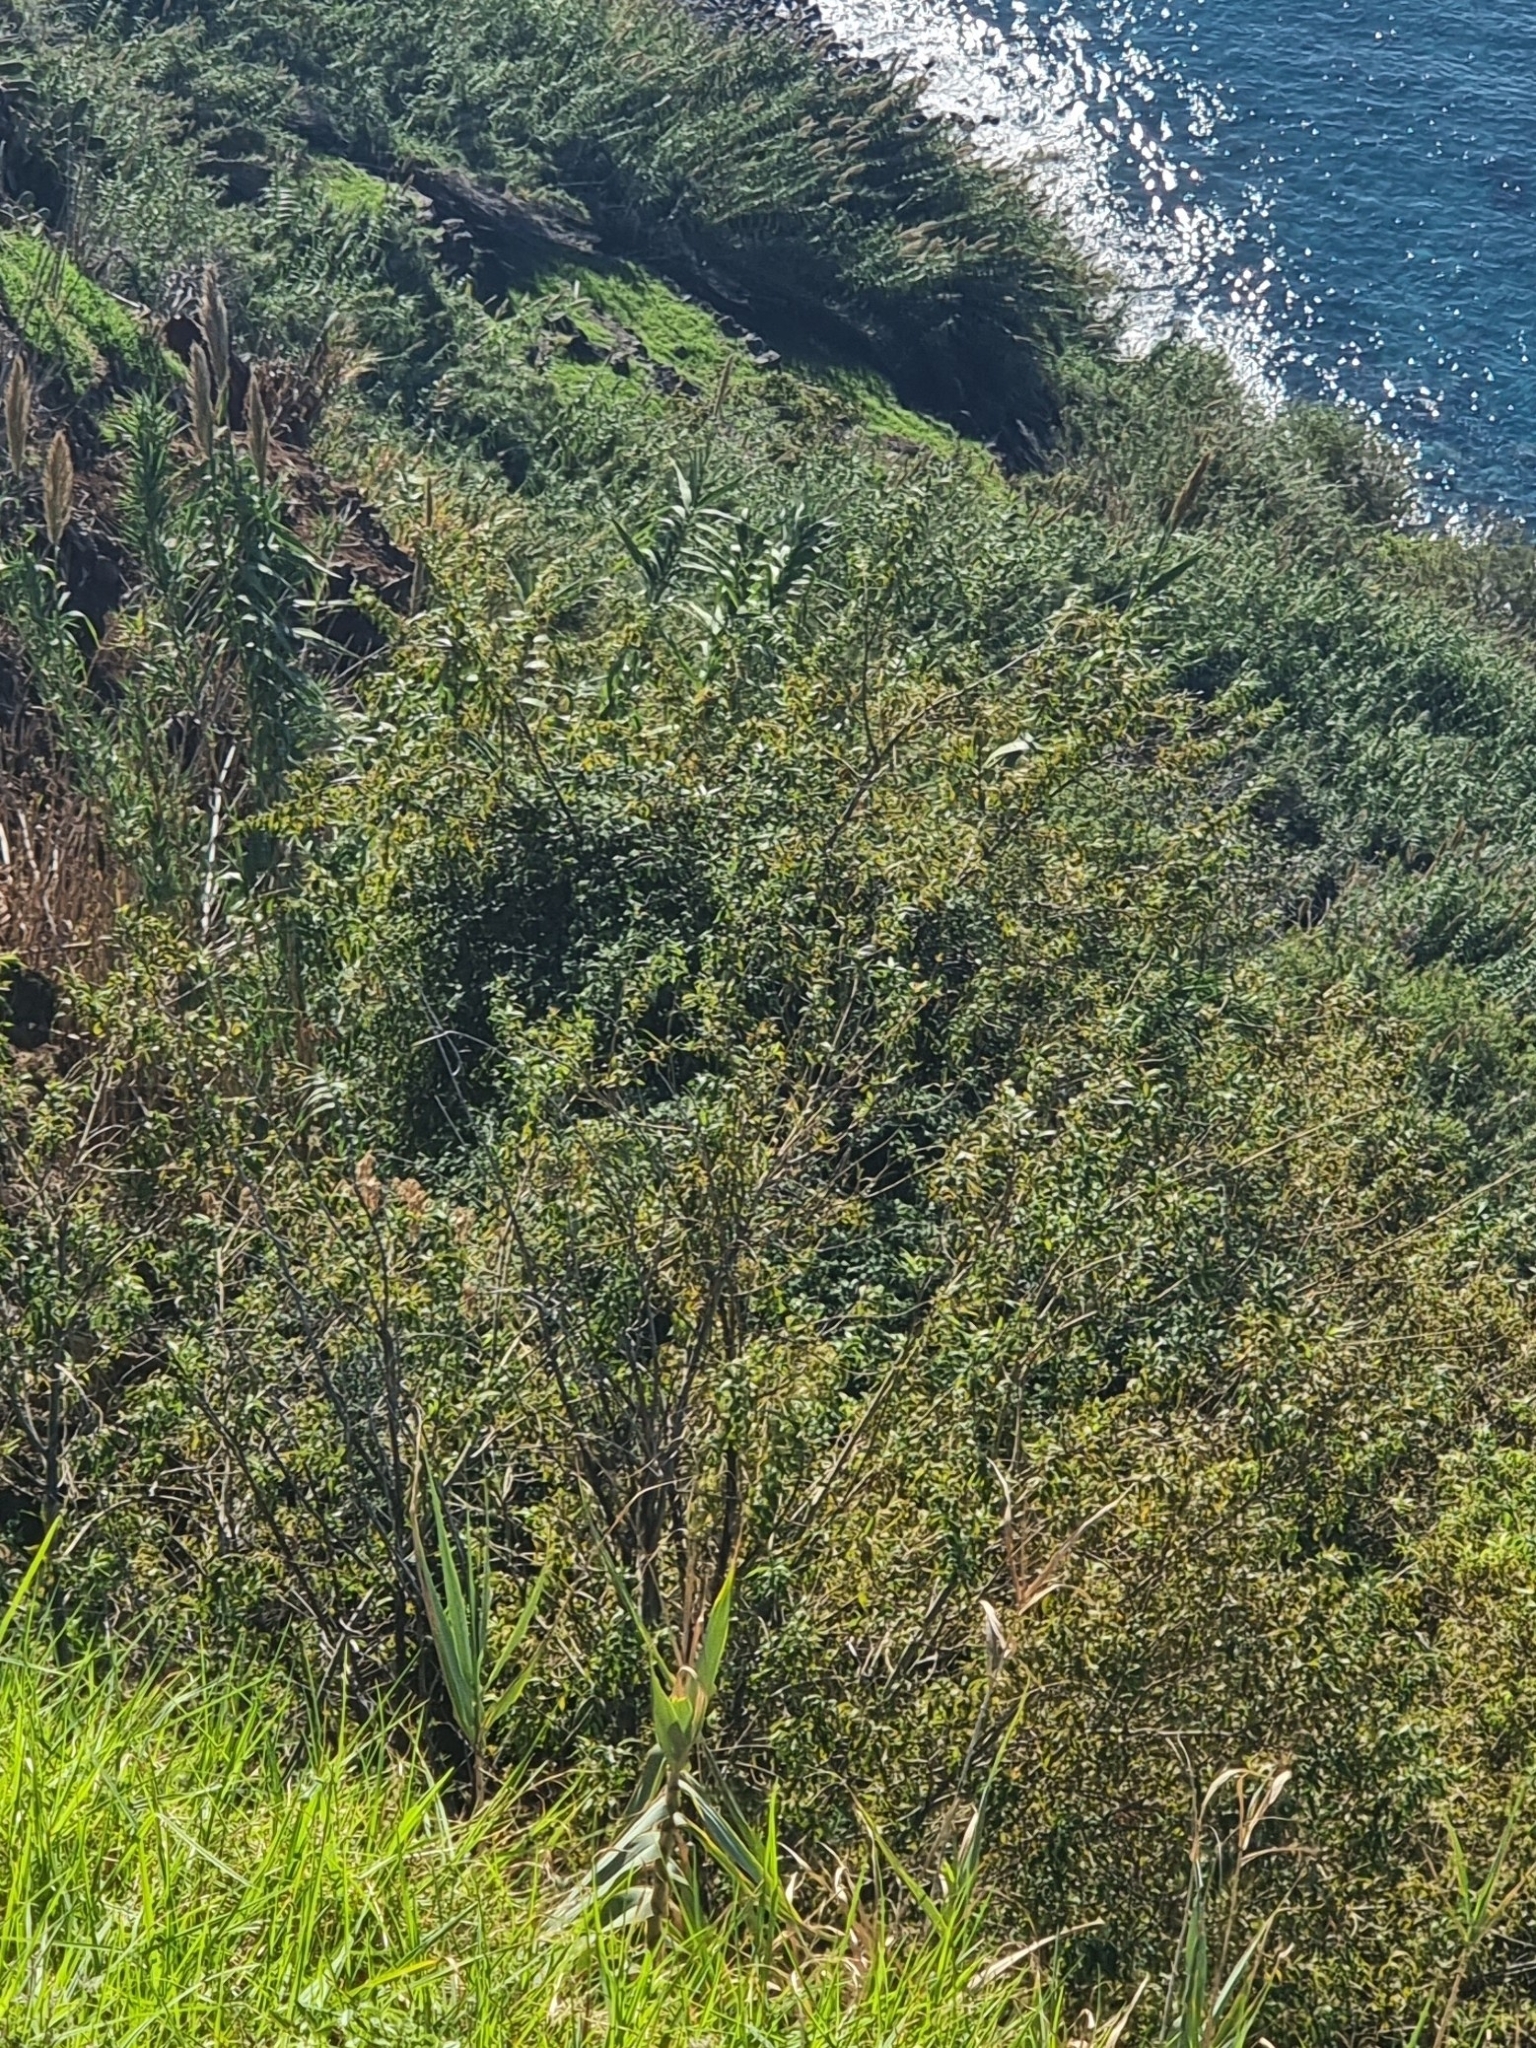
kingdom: Plantae
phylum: Tracheophyta
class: Magnoliopsida
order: Malpighiales
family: Salicaceae
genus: Salix
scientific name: Salix canariensis
